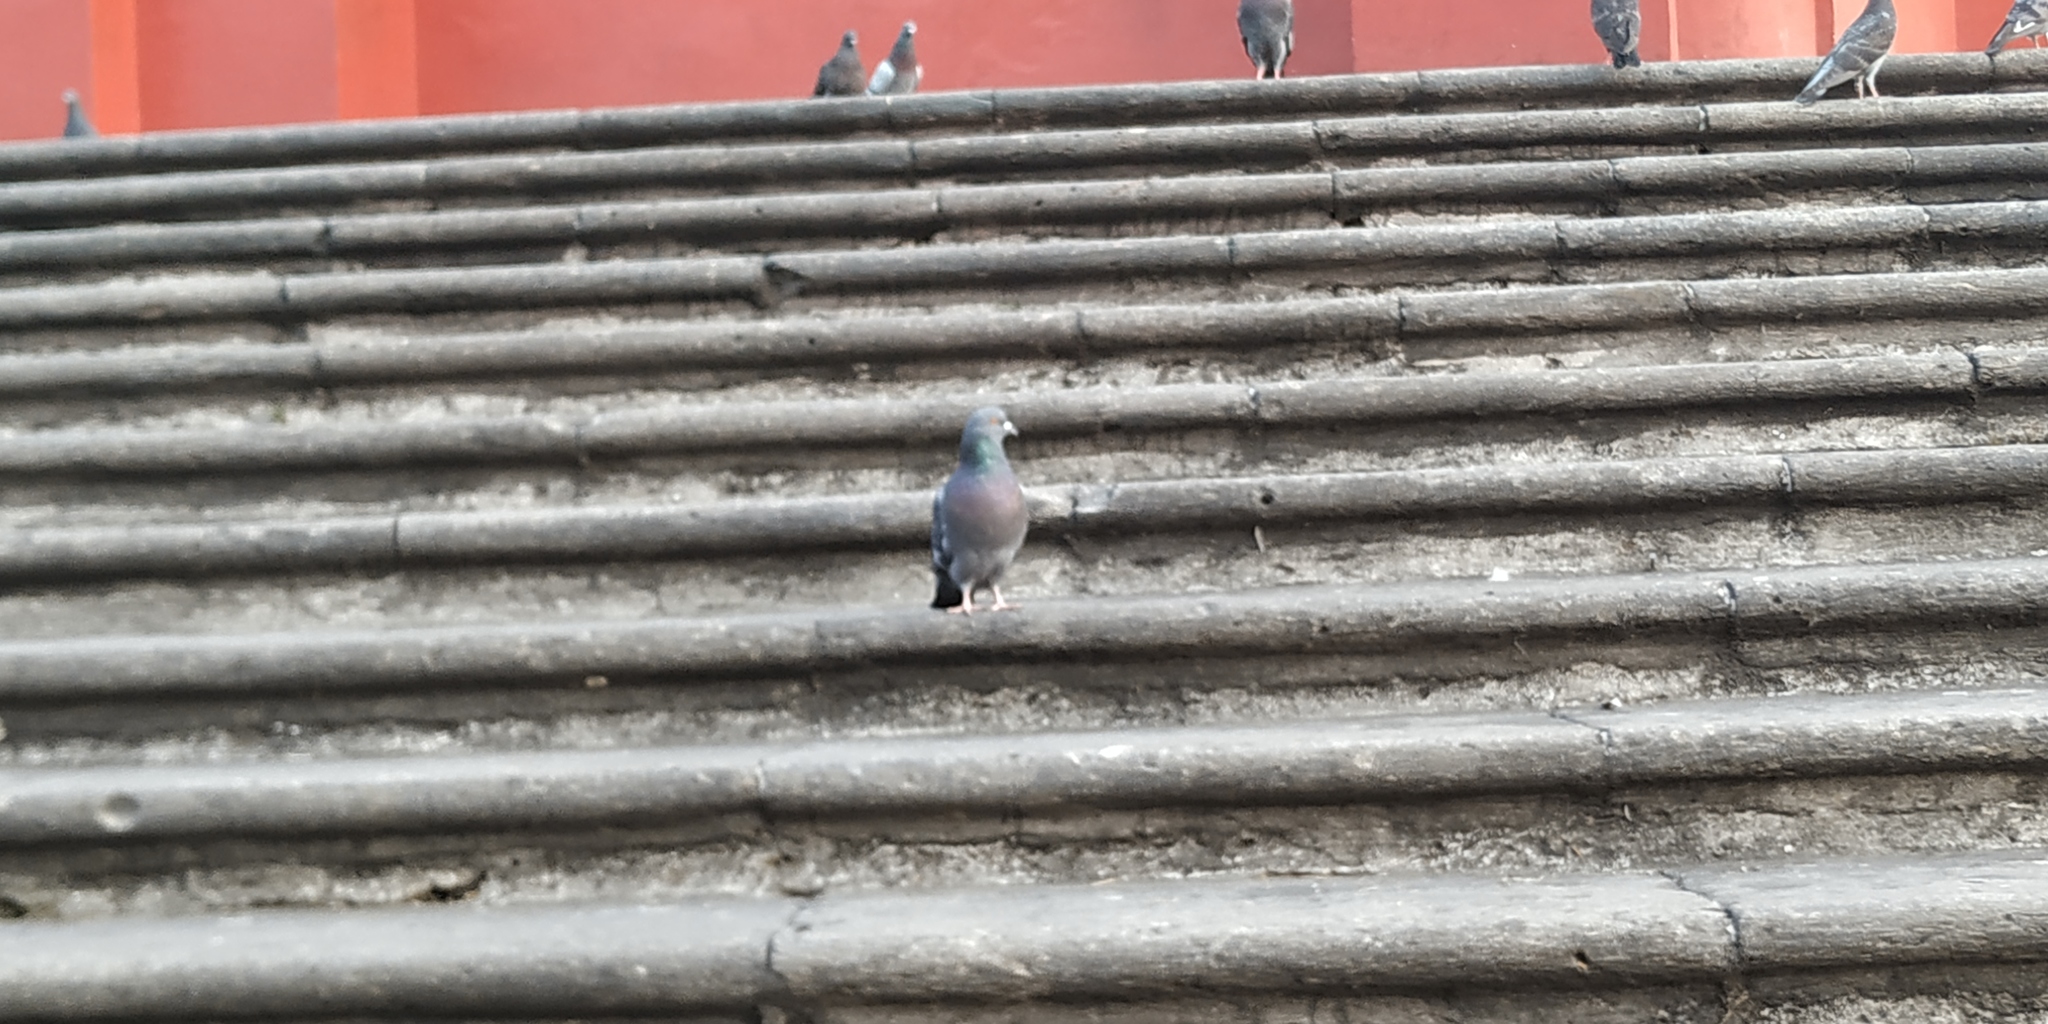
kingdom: Animalia
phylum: Chordata
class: Aves
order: Columbiformes
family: Columbidae
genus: Columba
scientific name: Columba livia
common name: Rock pigeon
